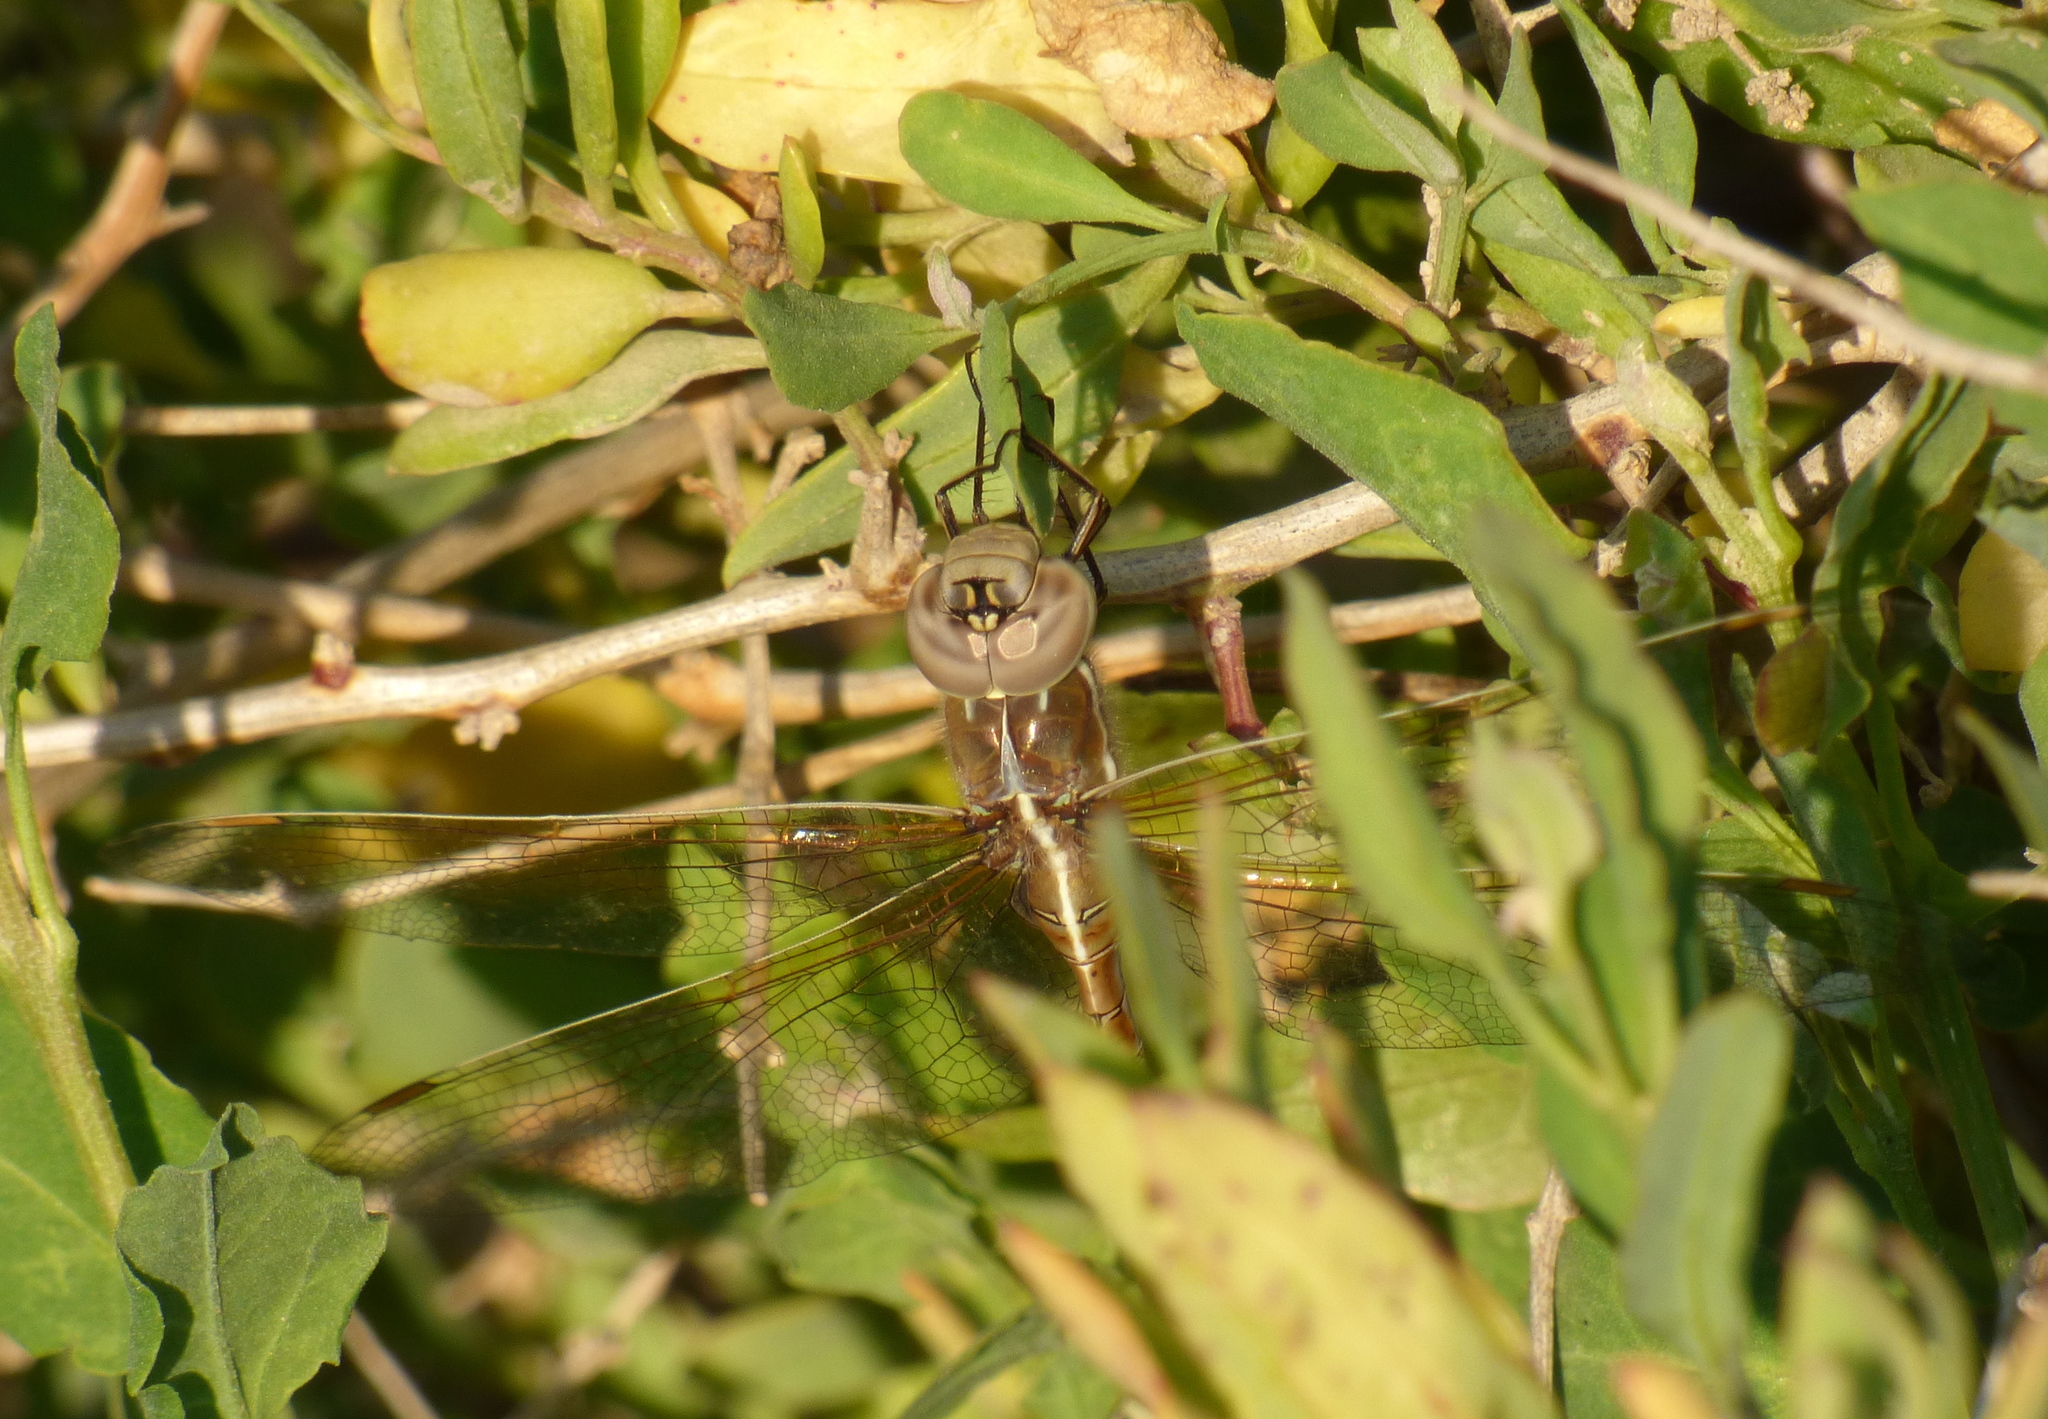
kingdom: Animalia
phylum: Arthropoda
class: Insecta
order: Odonata
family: Aeshnidae
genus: Rhionaeschna
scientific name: Rhionaeschna bonariensis
